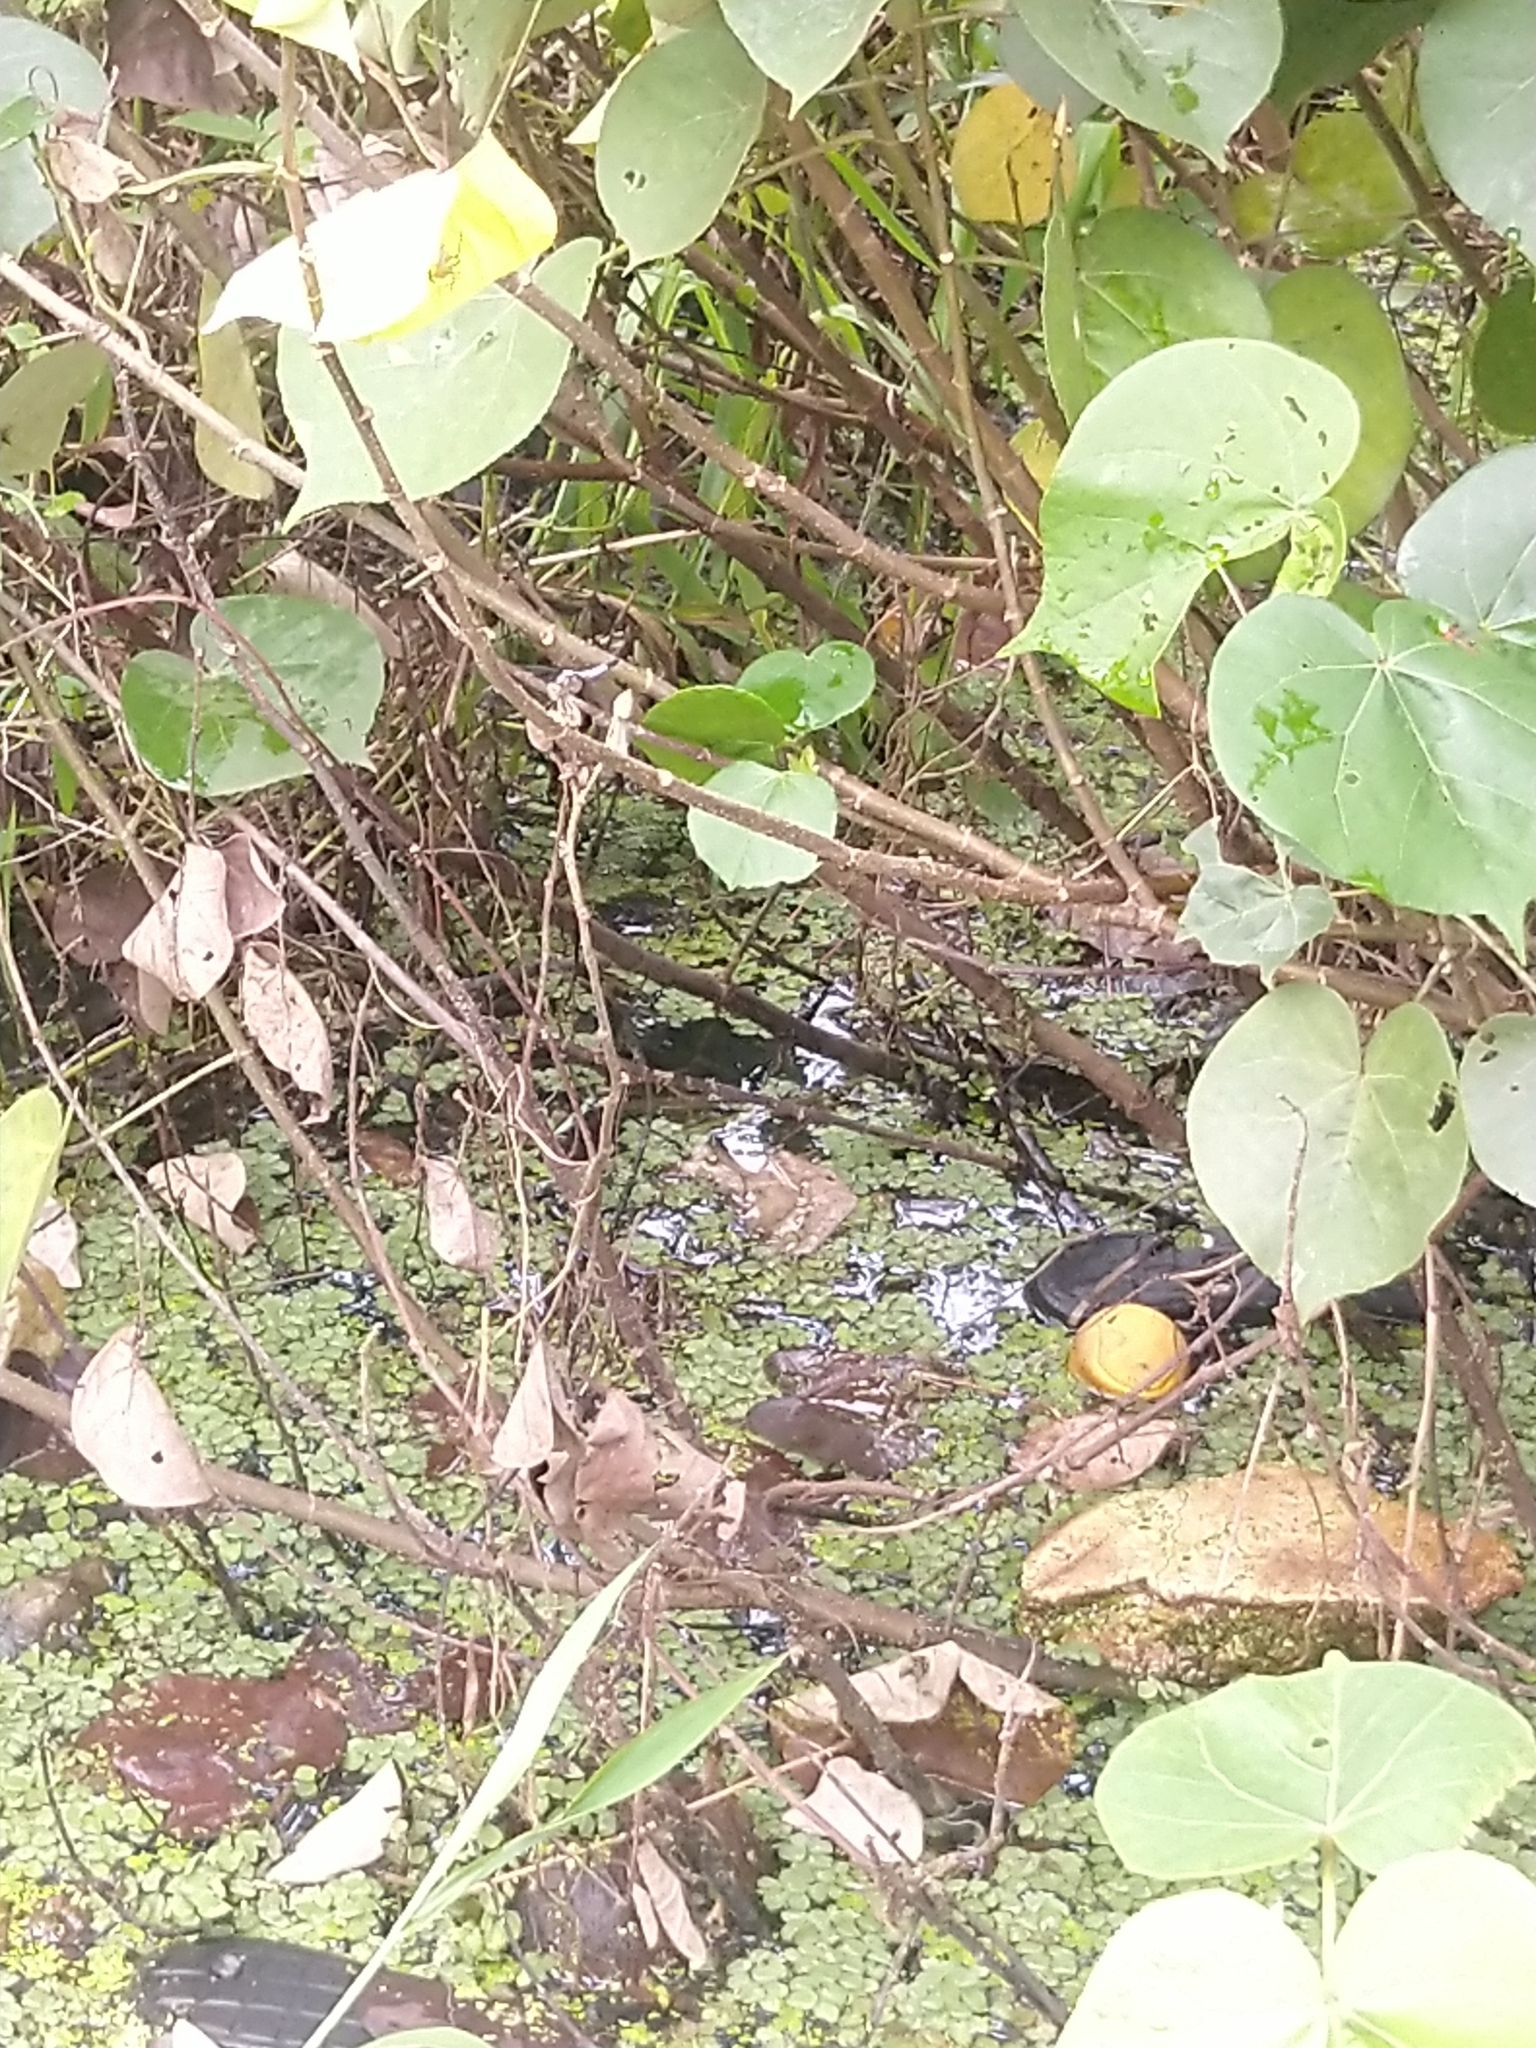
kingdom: Animalia
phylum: Arthropoda
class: Insecta
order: Odonata
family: Libellulidae
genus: Brachydiplax
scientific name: Brachydiplax chalybea
